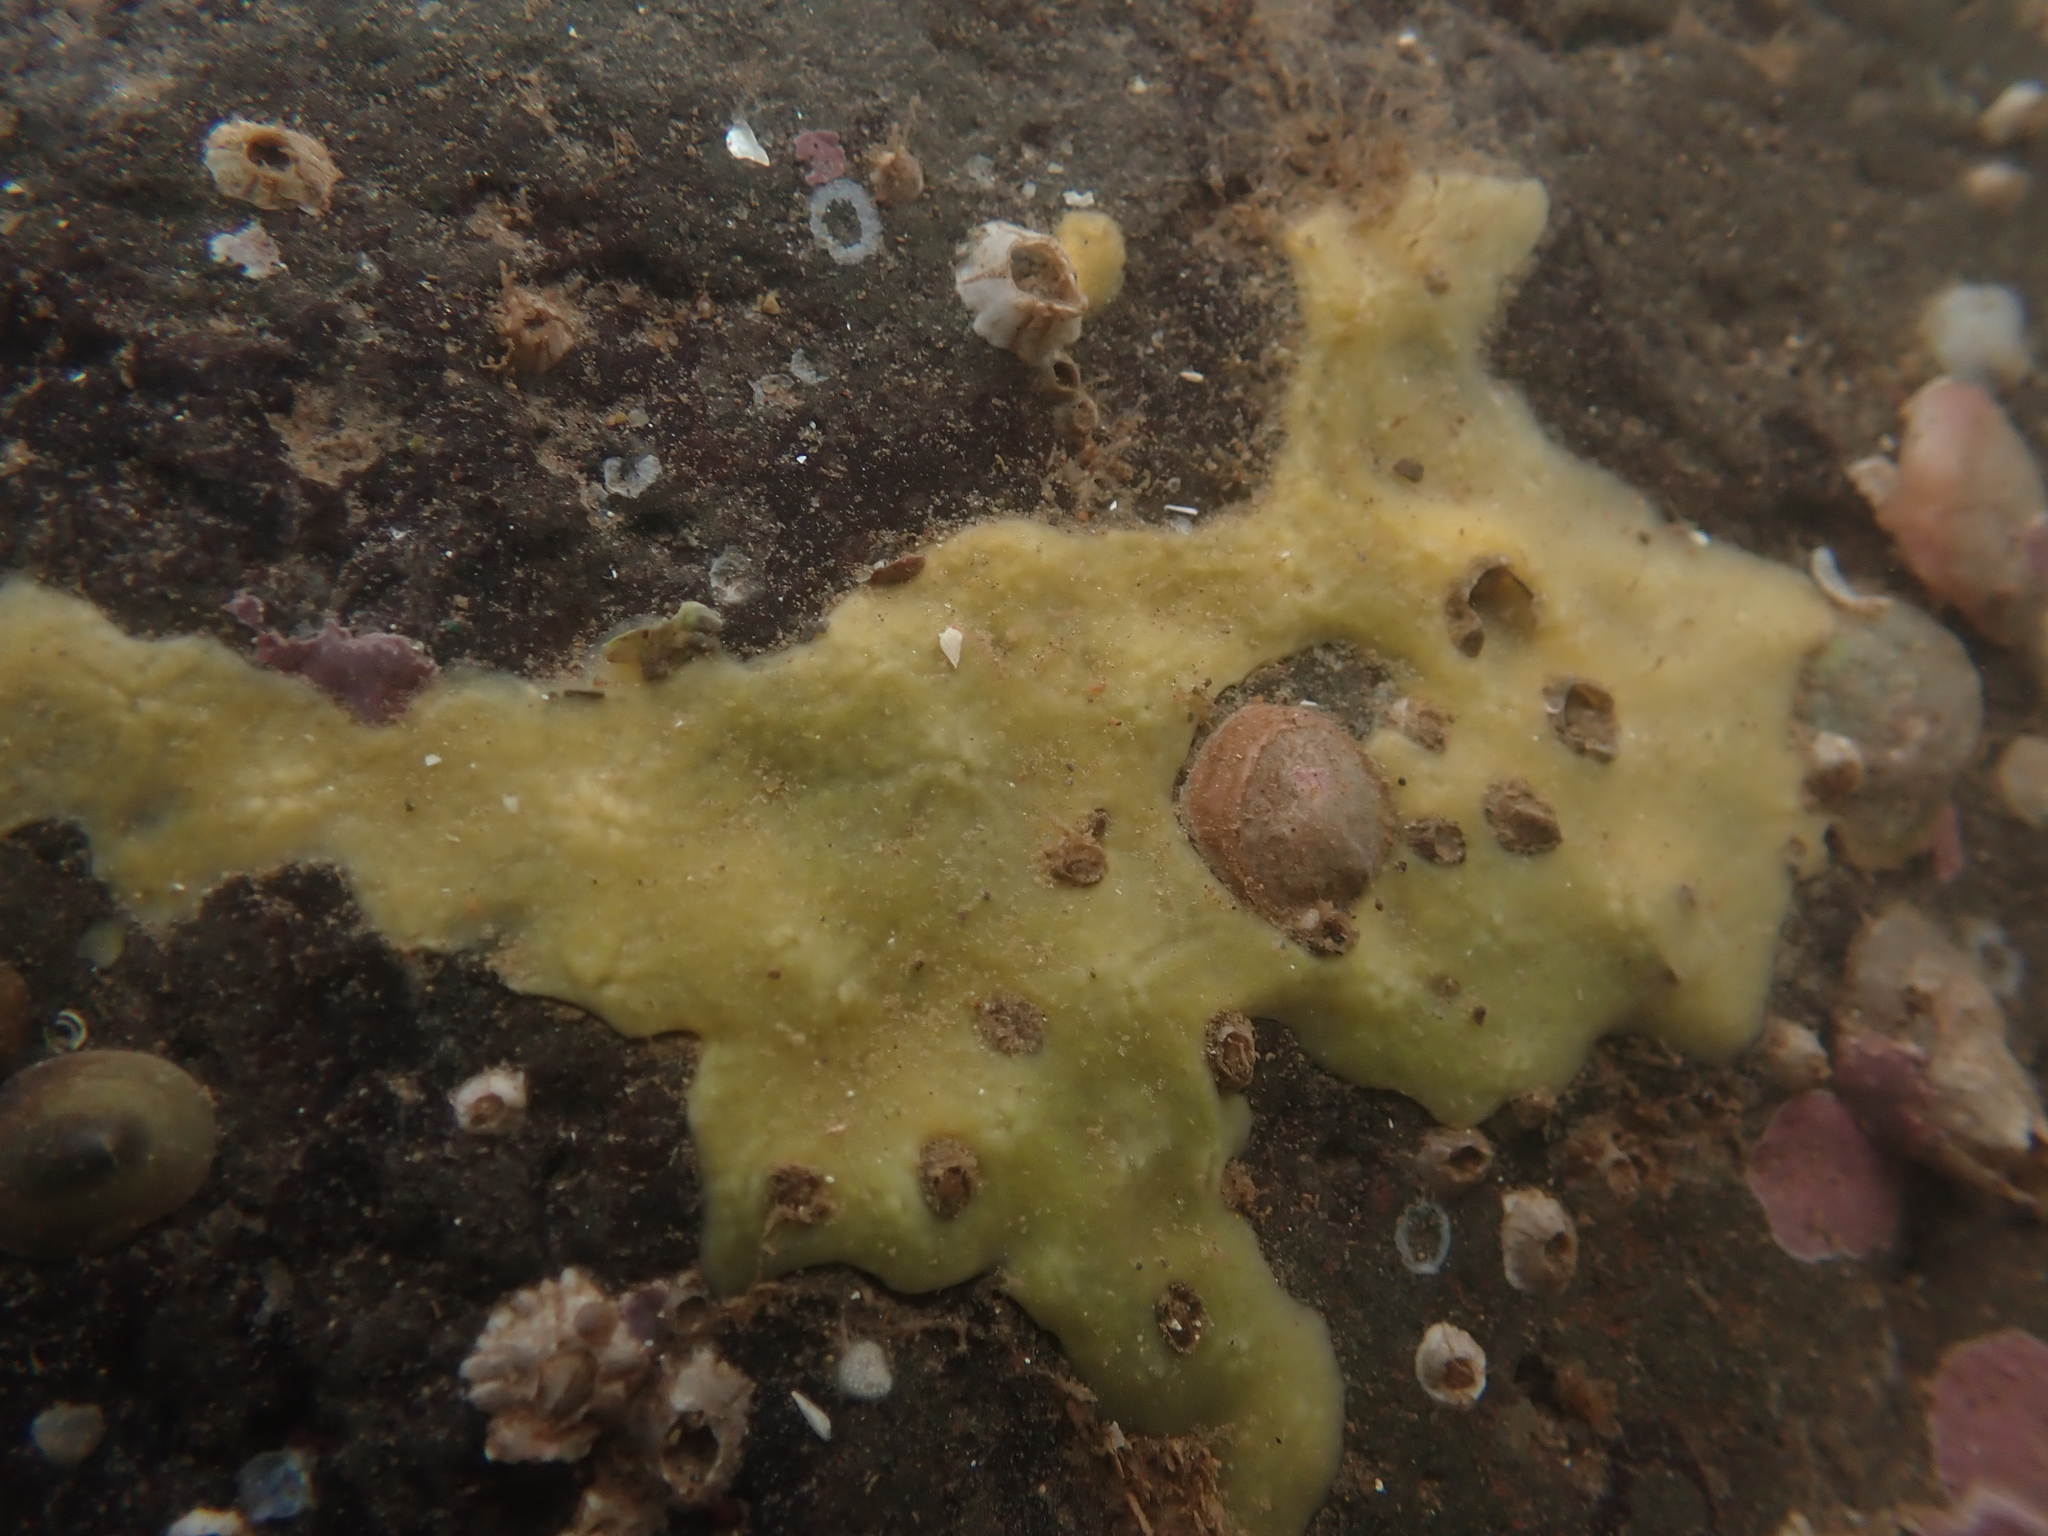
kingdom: Animalia
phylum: Porifera
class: Demospongiae
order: Suberitida
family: Halichondriidae
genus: Halichondria
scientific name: Halichondria panicea
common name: Breadcrumb sponge
